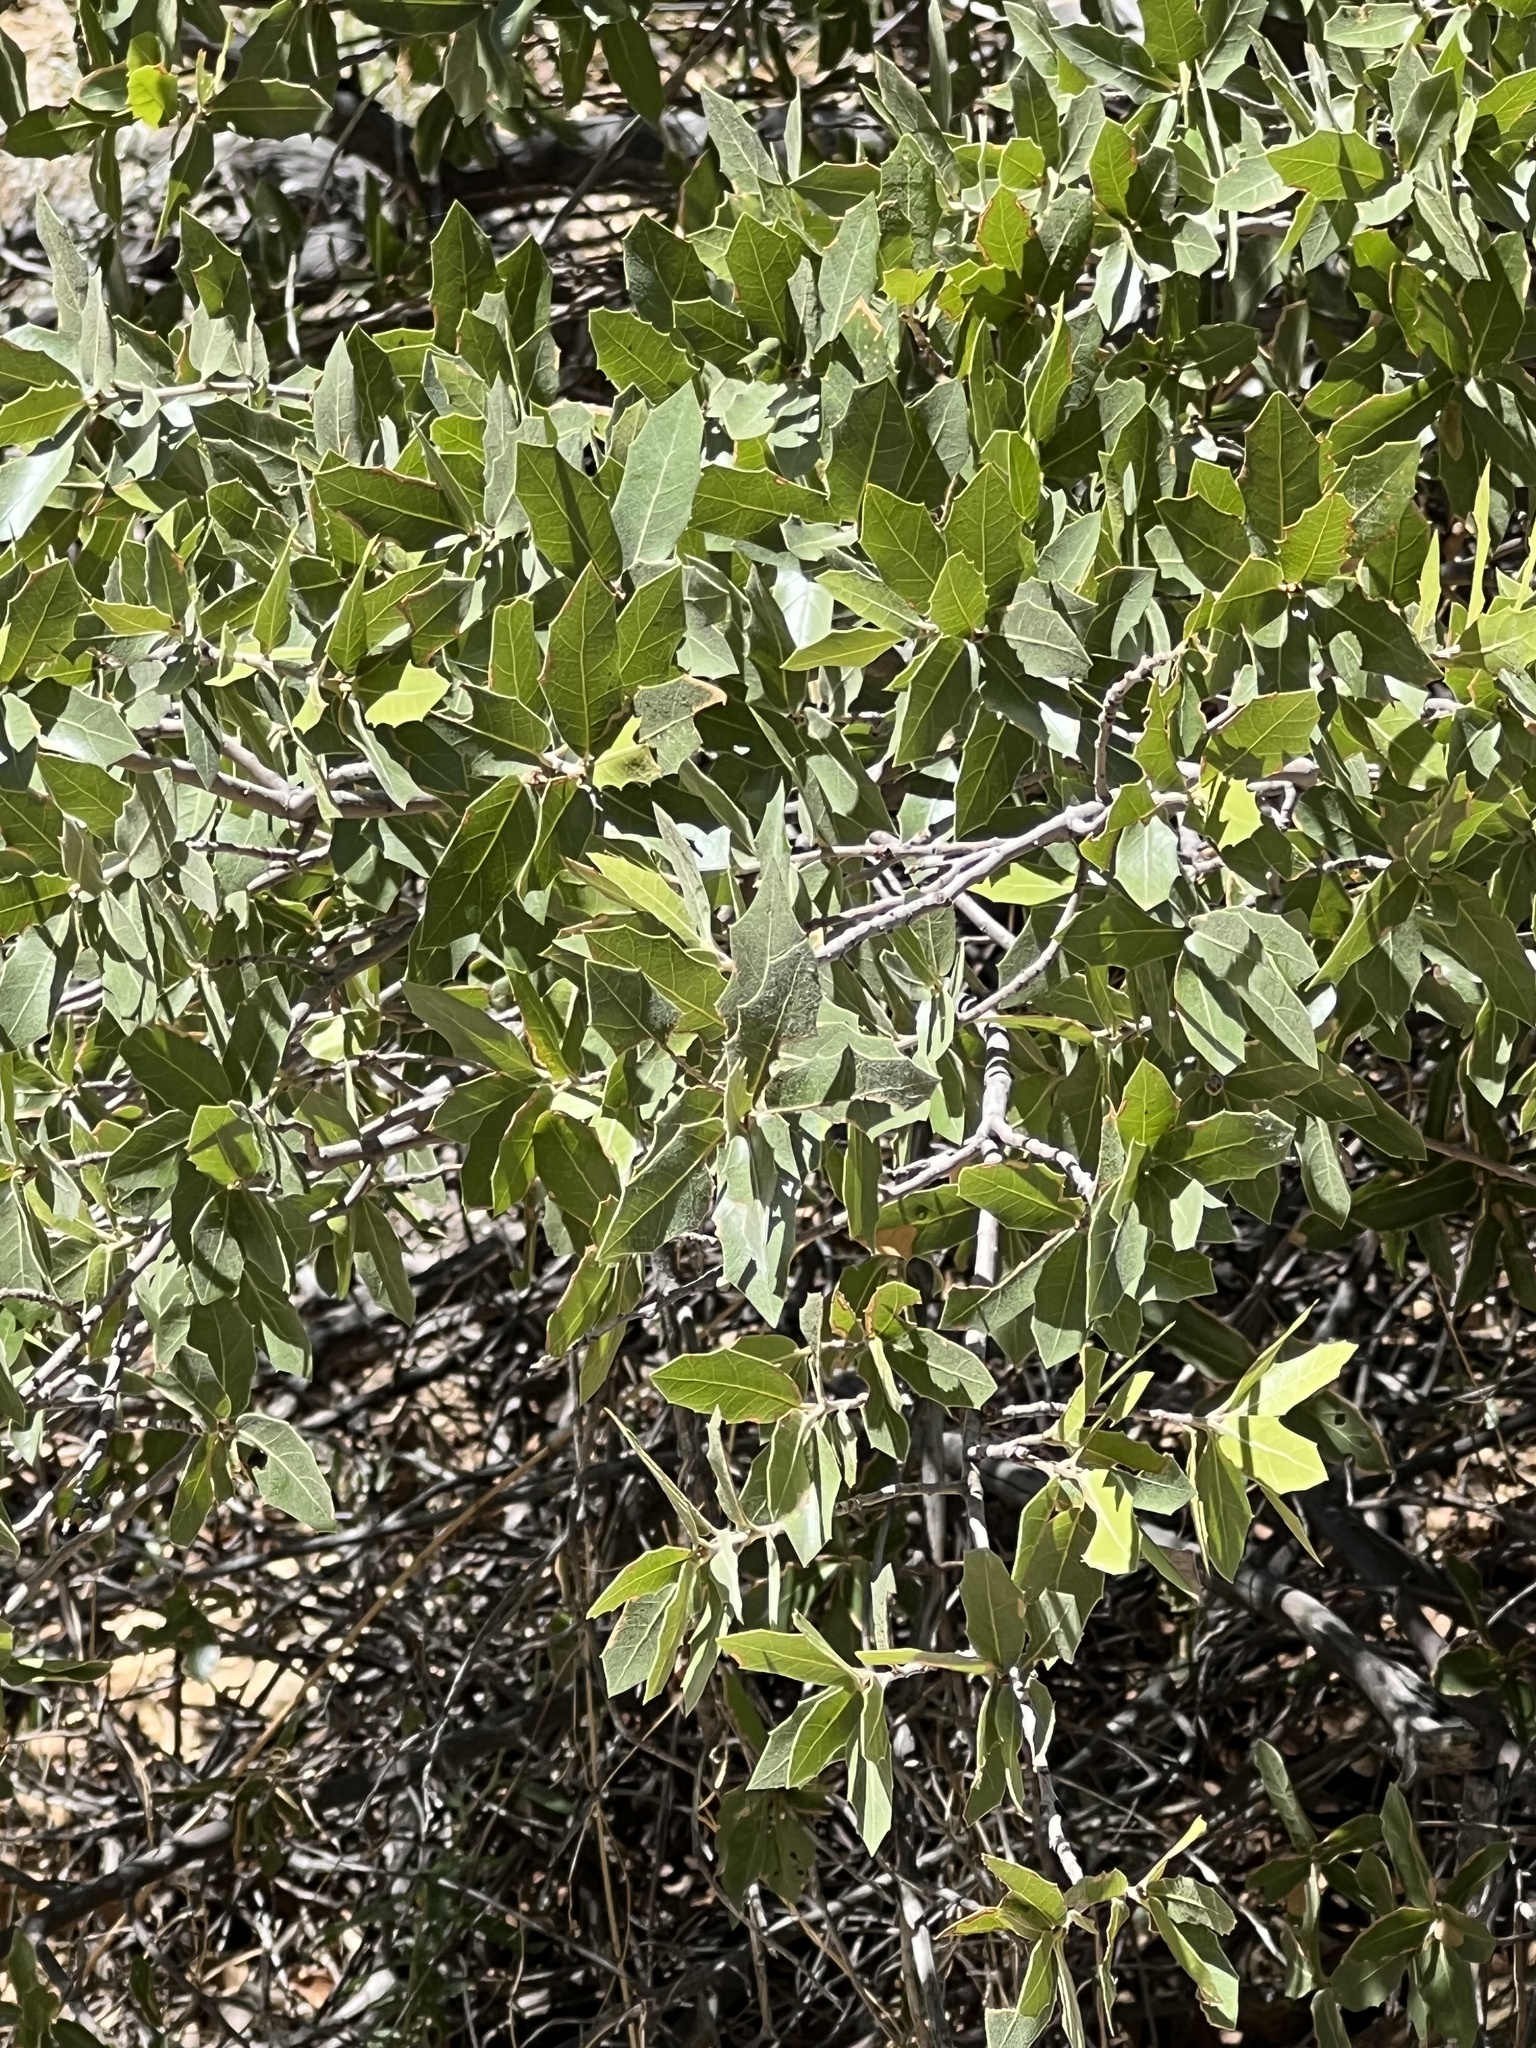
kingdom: Plantae
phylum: Tracheophyta
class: Magnoliopsida
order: Fagales
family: Fagaceae
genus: Quercus
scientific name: Quercus emoryi
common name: Emory oak
